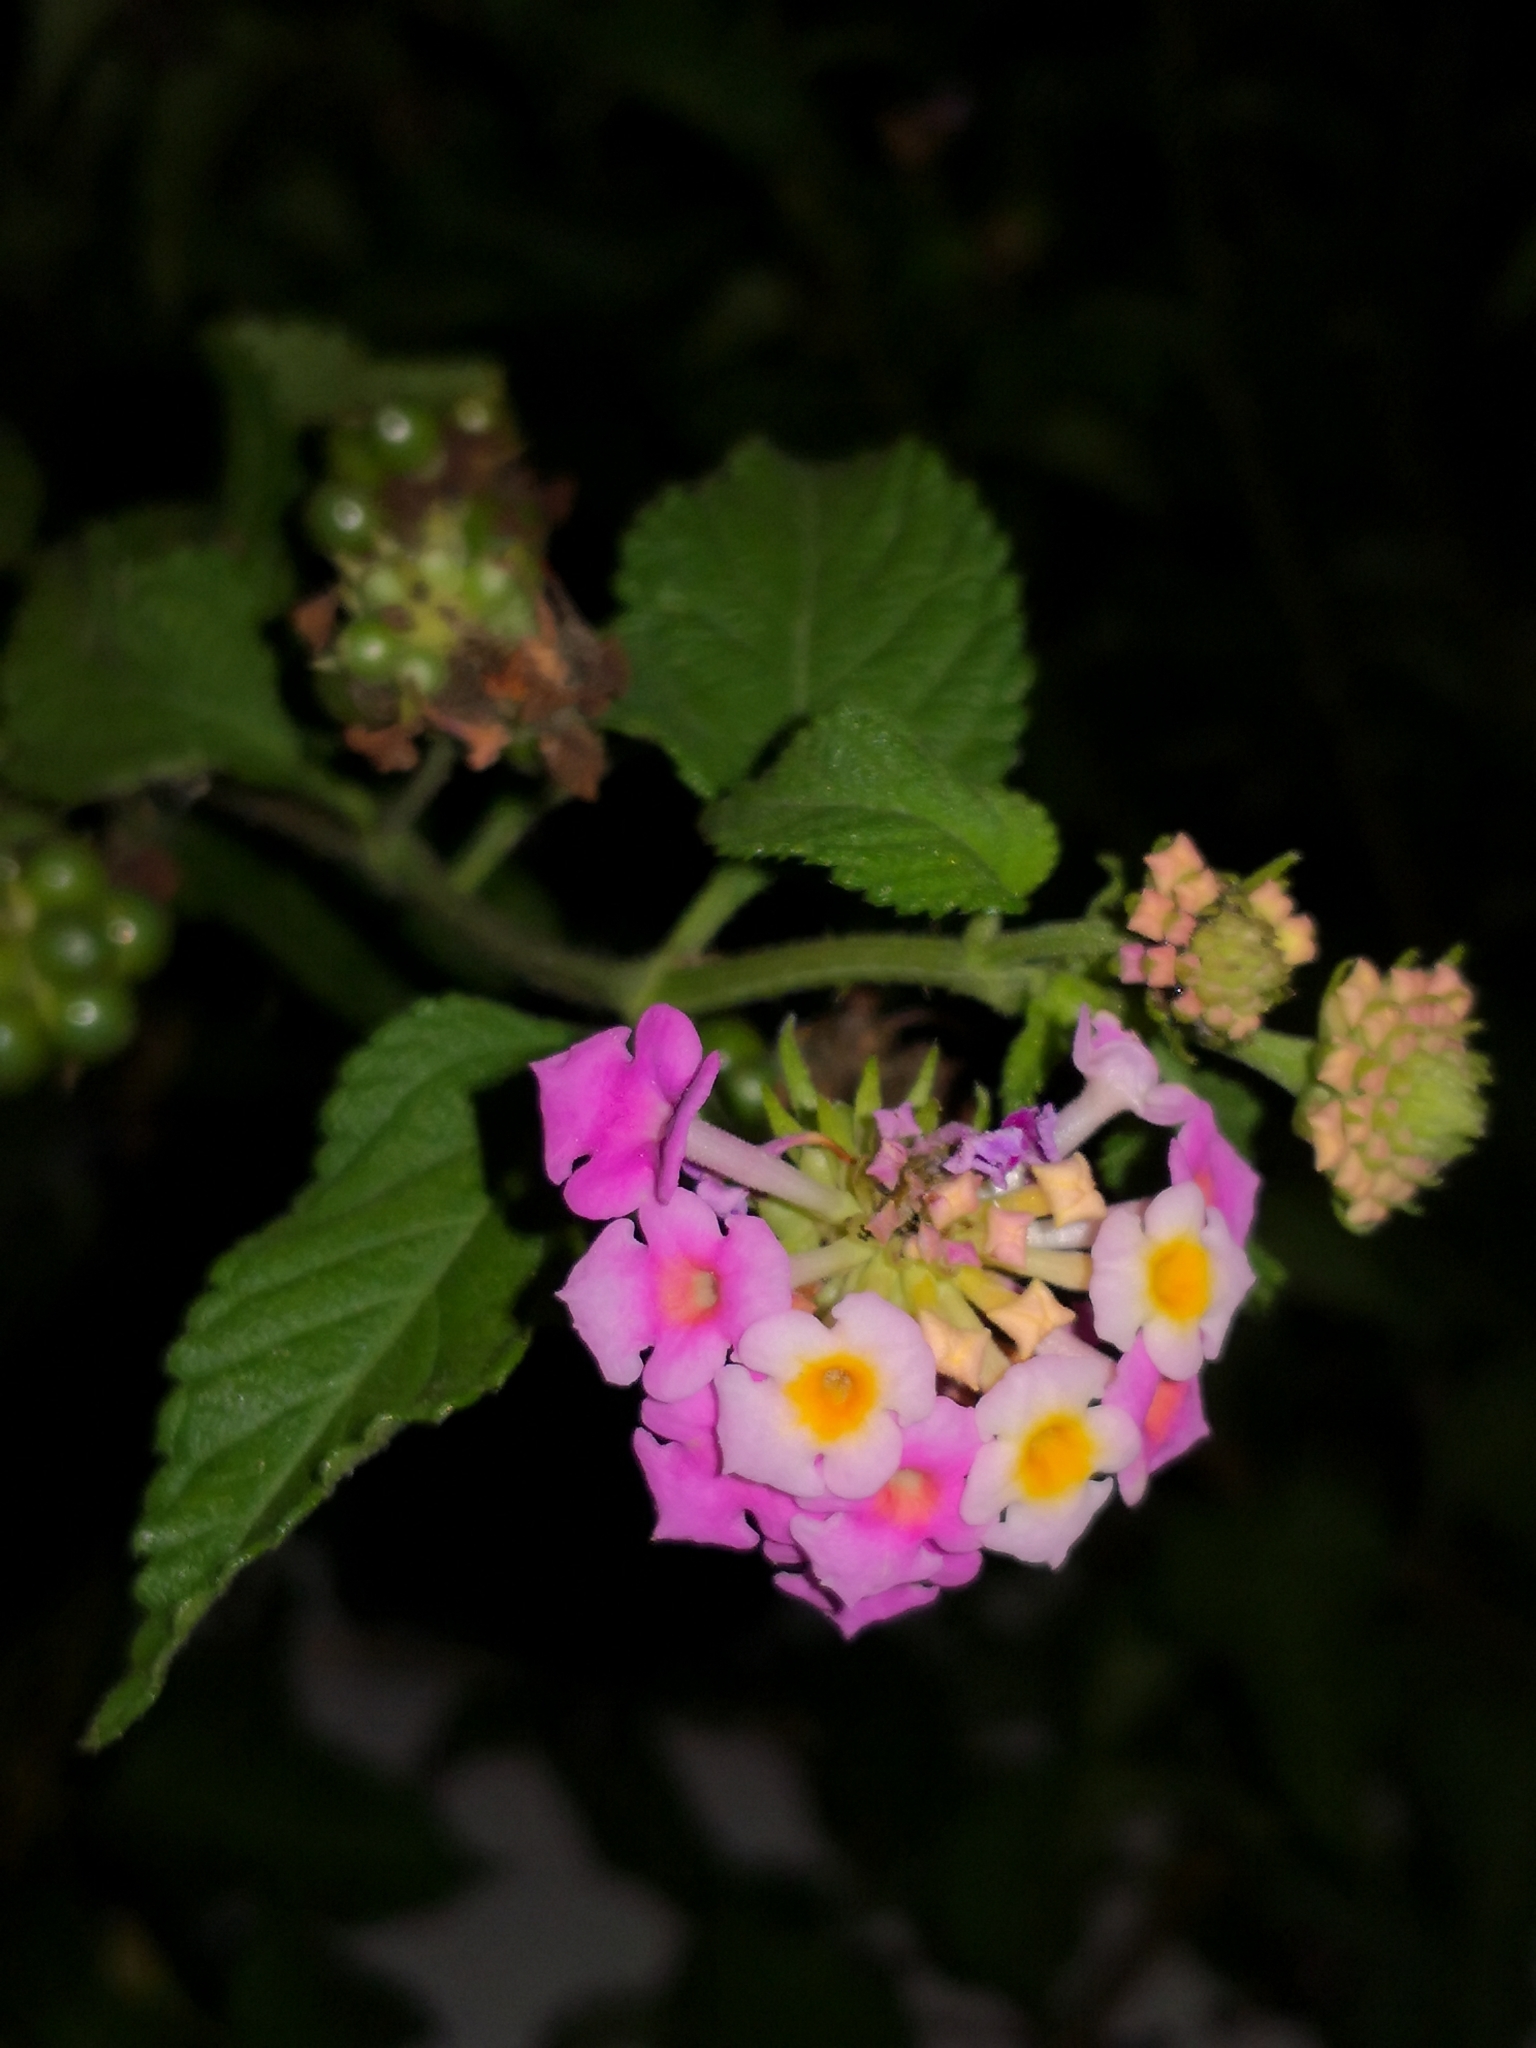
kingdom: Plantae
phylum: Tracheophyta
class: Magnoliopsida
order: Lamiales
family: Verbenaceae
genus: Lantana
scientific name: Lantana camara
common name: Lantana
